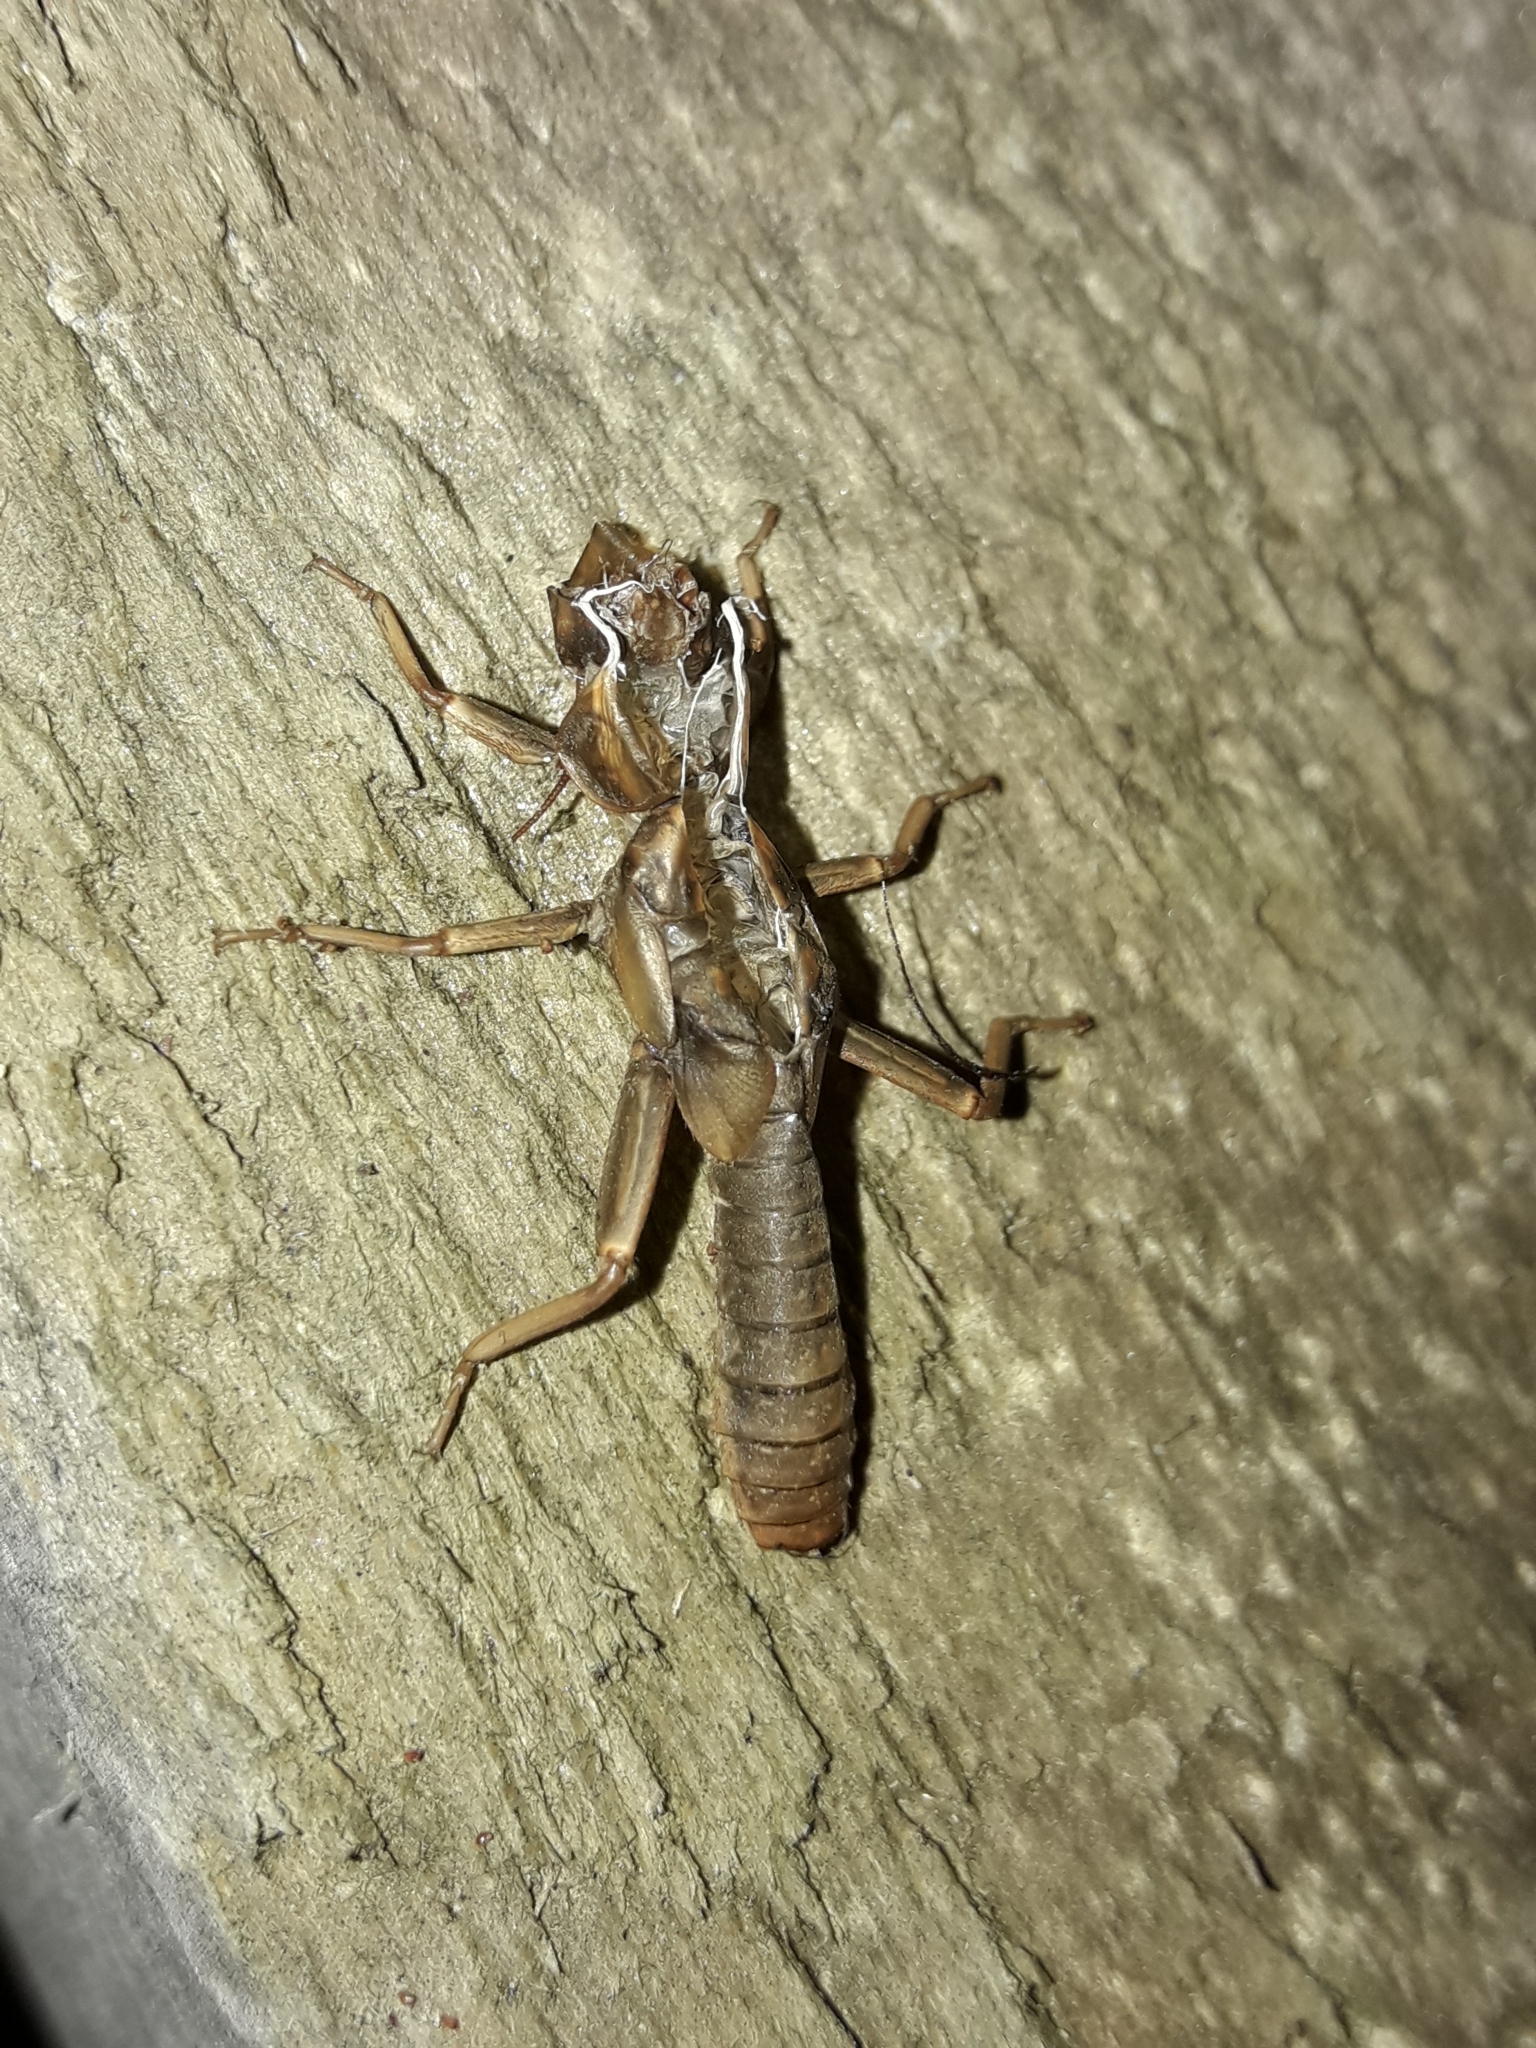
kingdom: Animalia
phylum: Arthropoda
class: Insecta
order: Odonata
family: Petaluridae
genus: Uropetala
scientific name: Uropetala carovei
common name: Bush giant dragonfly
